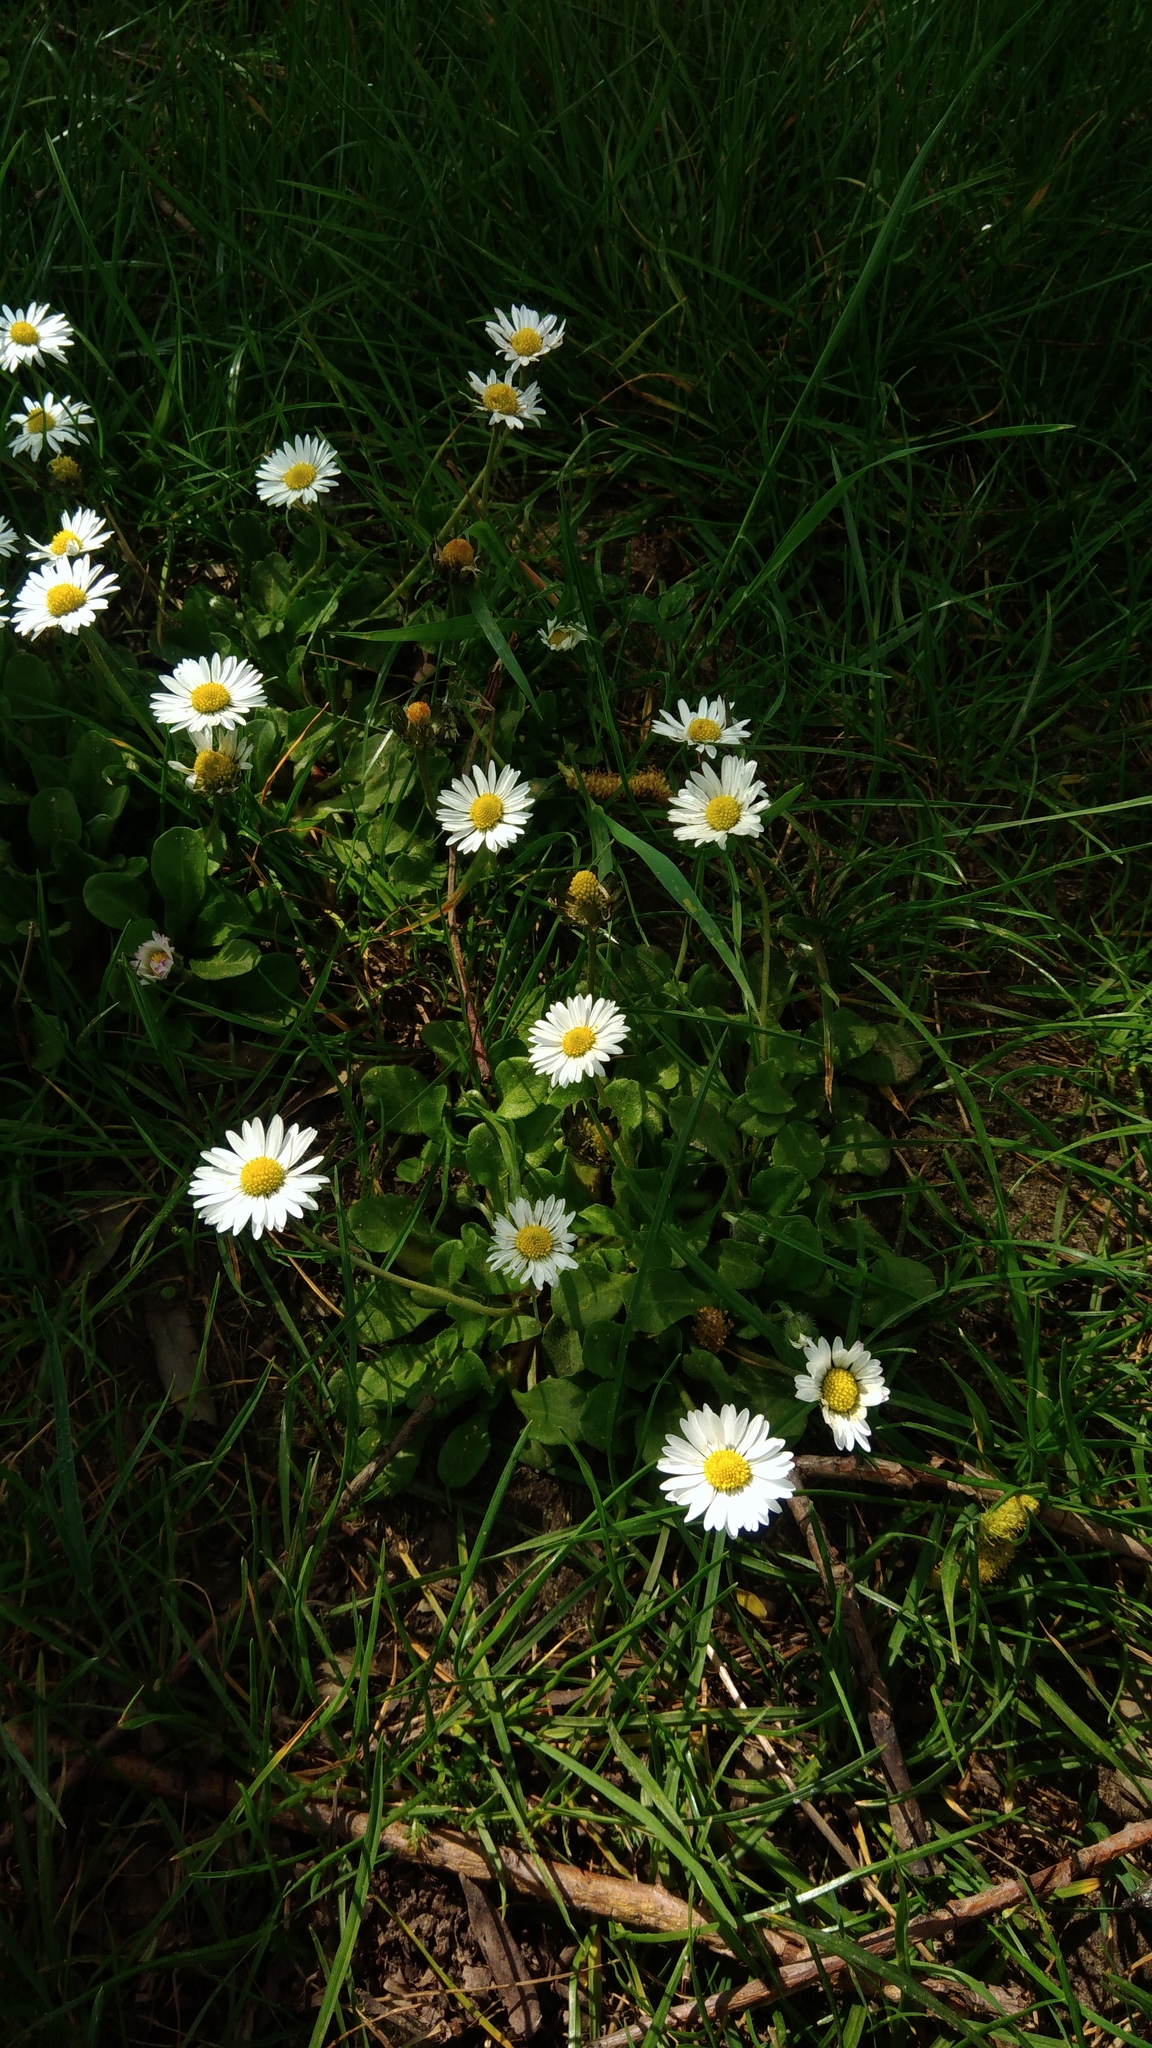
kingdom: Plantae
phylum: Tracheophyta
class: Magnoliopsida
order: Asterales
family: Asteraceae
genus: Bellis
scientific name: Bellis perennis
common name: Lawndaisy
